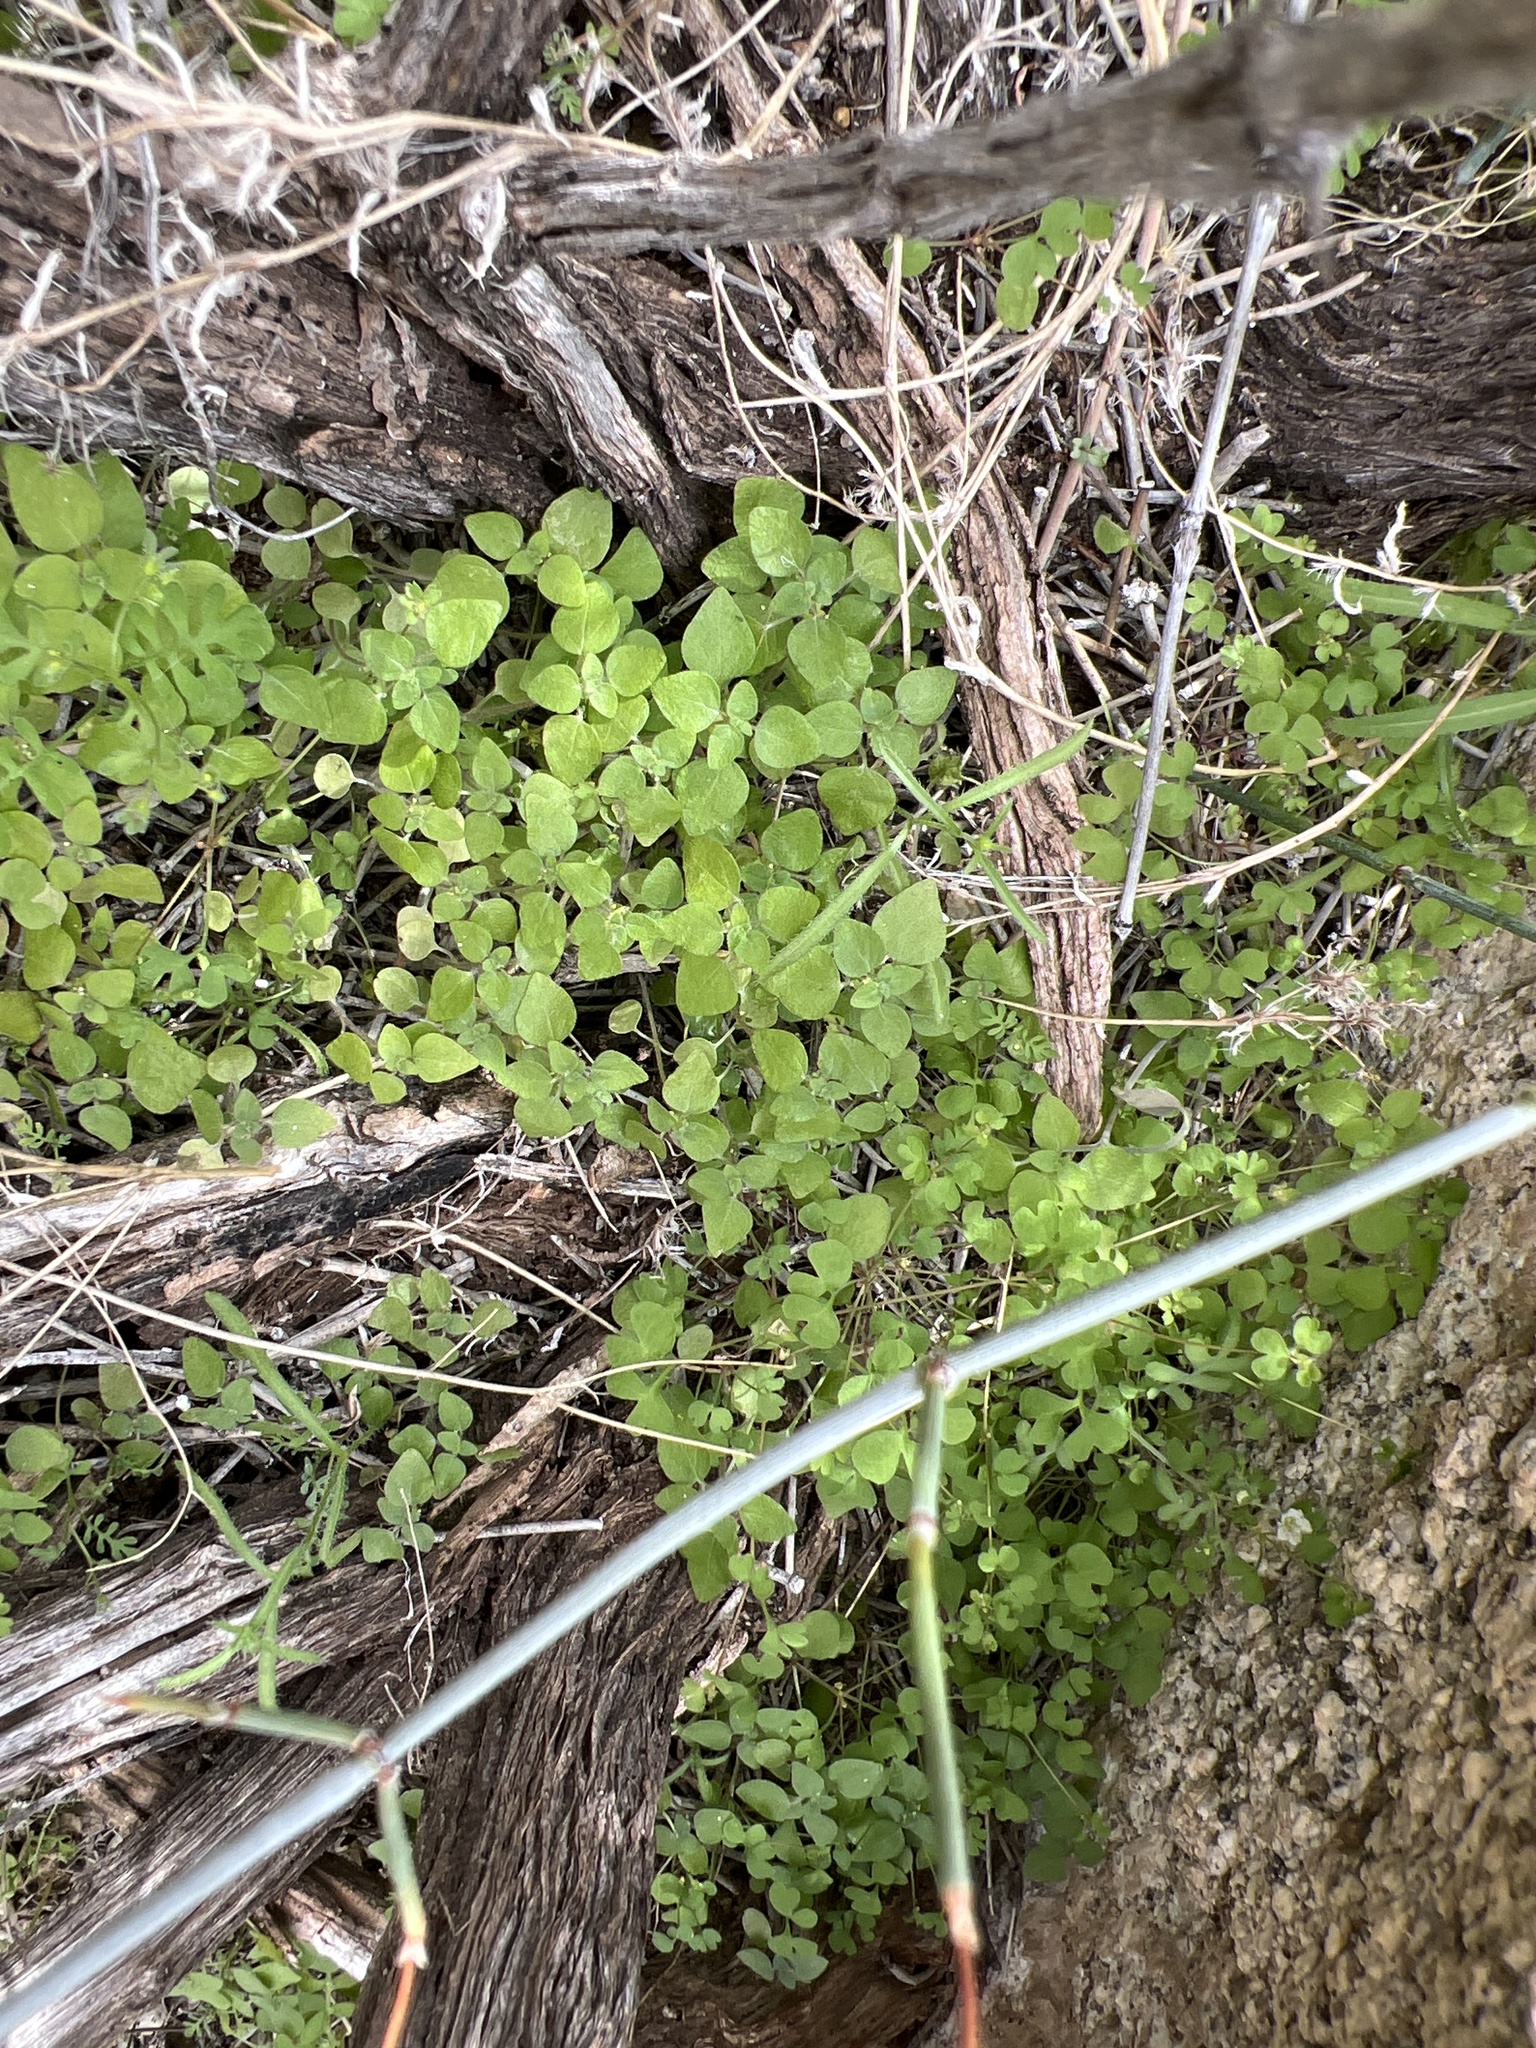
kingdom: Plantae
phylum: Tracheophyta
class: Magnoliopsida
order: Rosales
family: Urticaceae
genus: Parietaria
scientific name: Parietaria hespera
